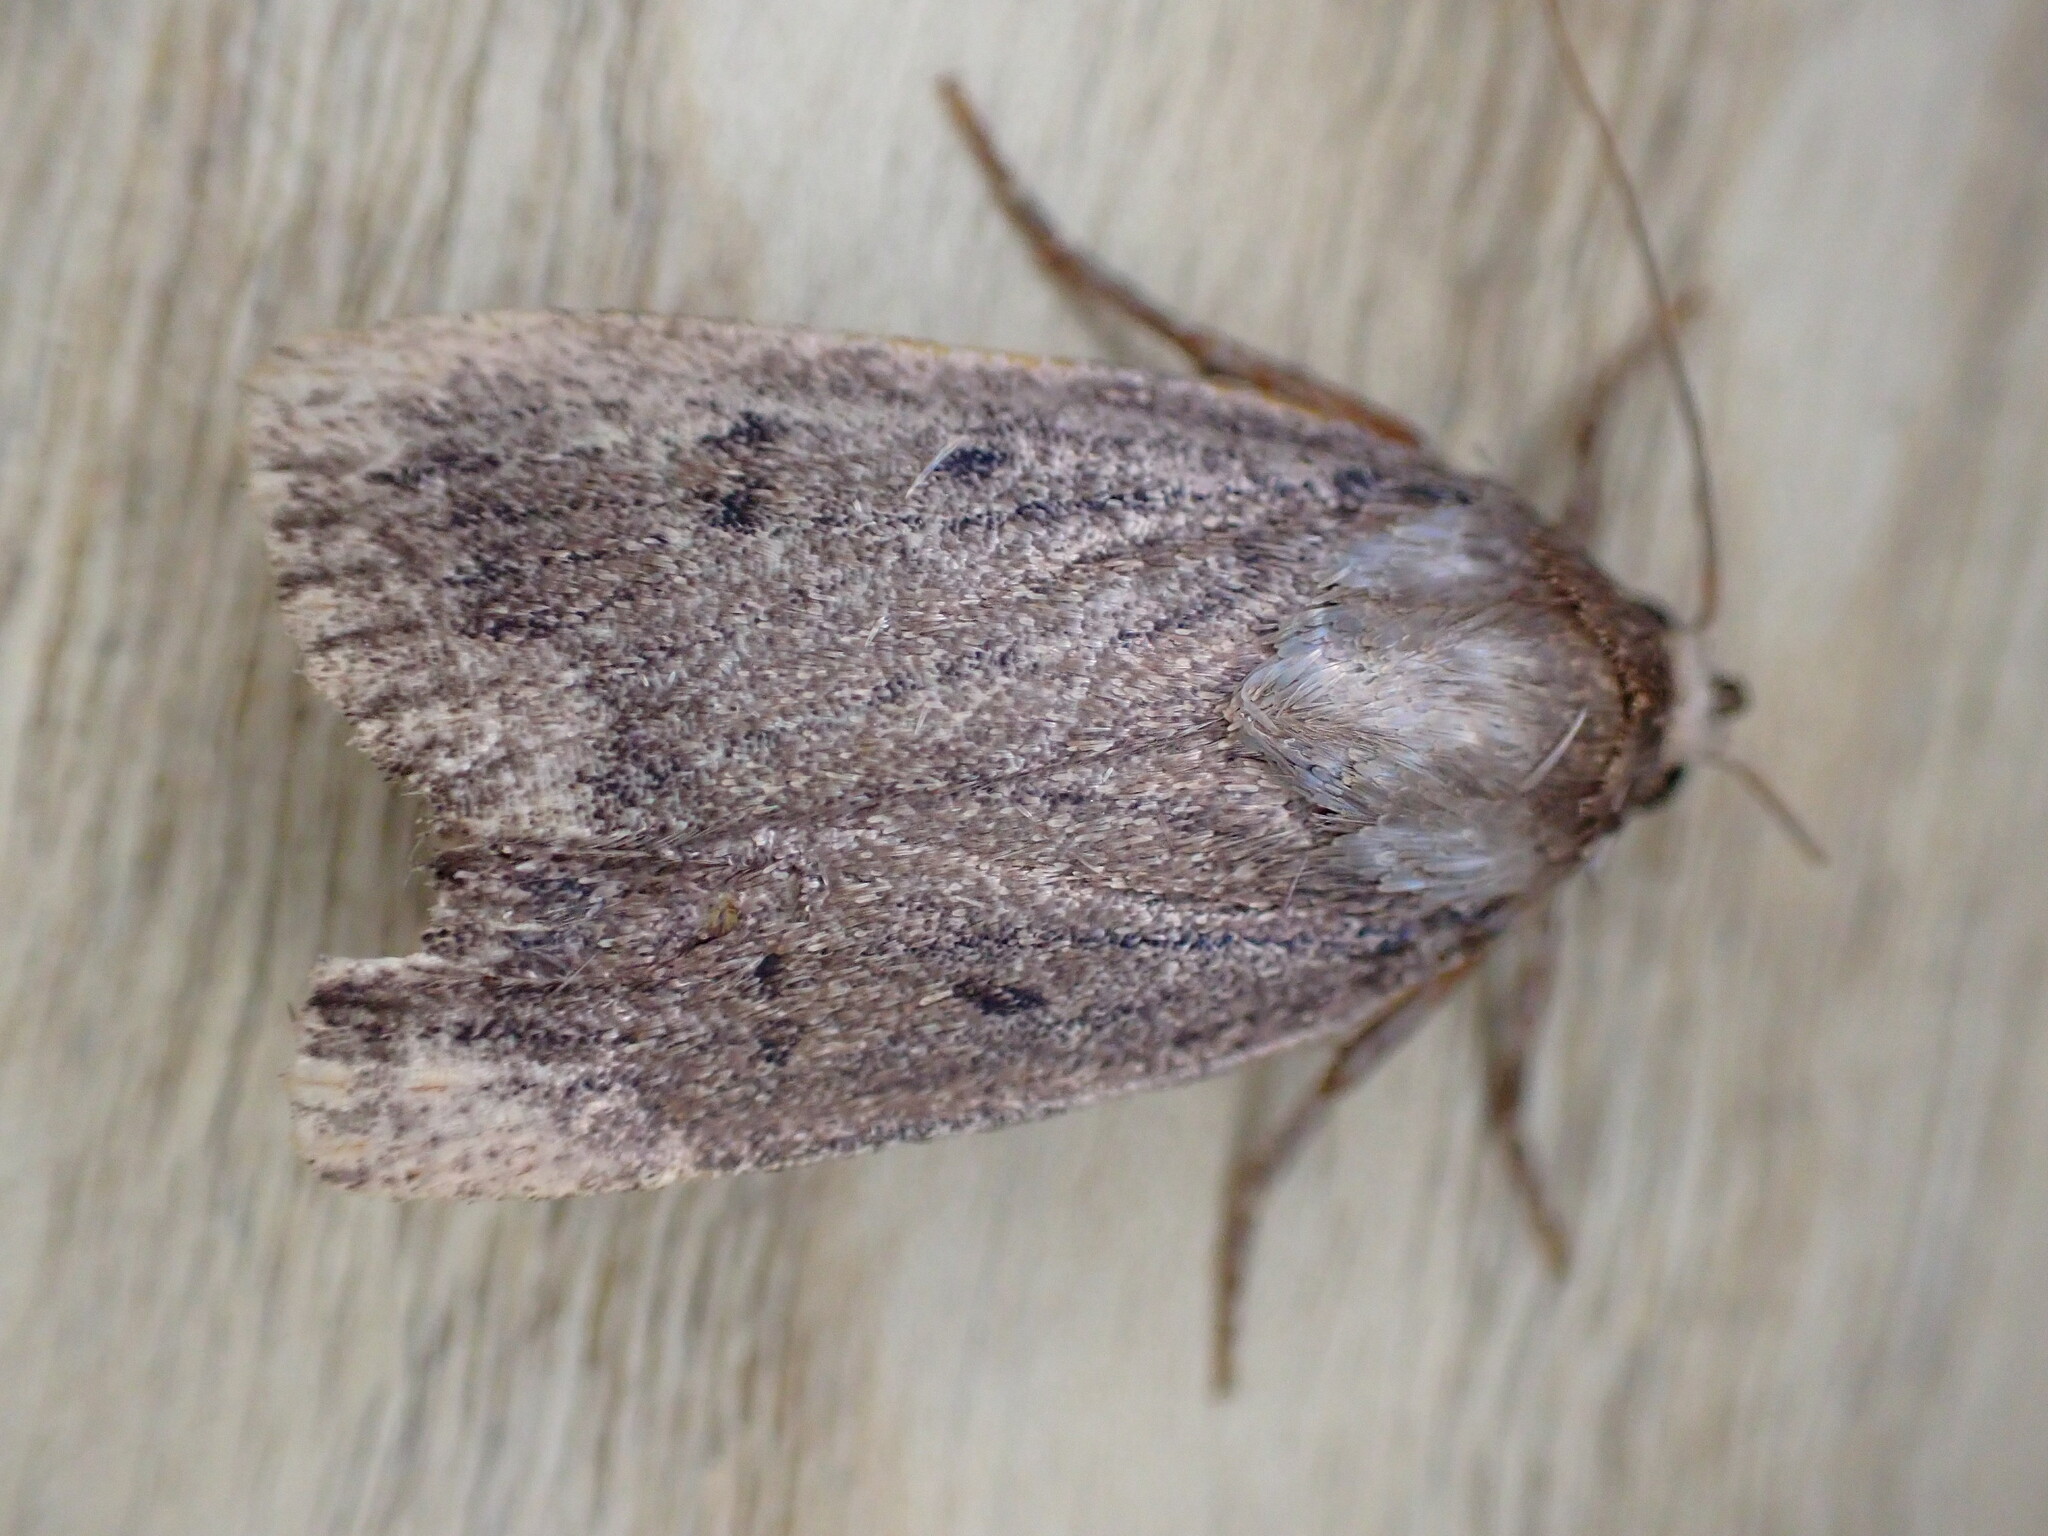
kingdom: Animalia
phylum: Arthropoda
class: Insecta
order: Lepidoptera
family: Noctuidae
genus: Amphipyra
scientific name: Amphipyra tragopoginis
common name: Mouse moth
